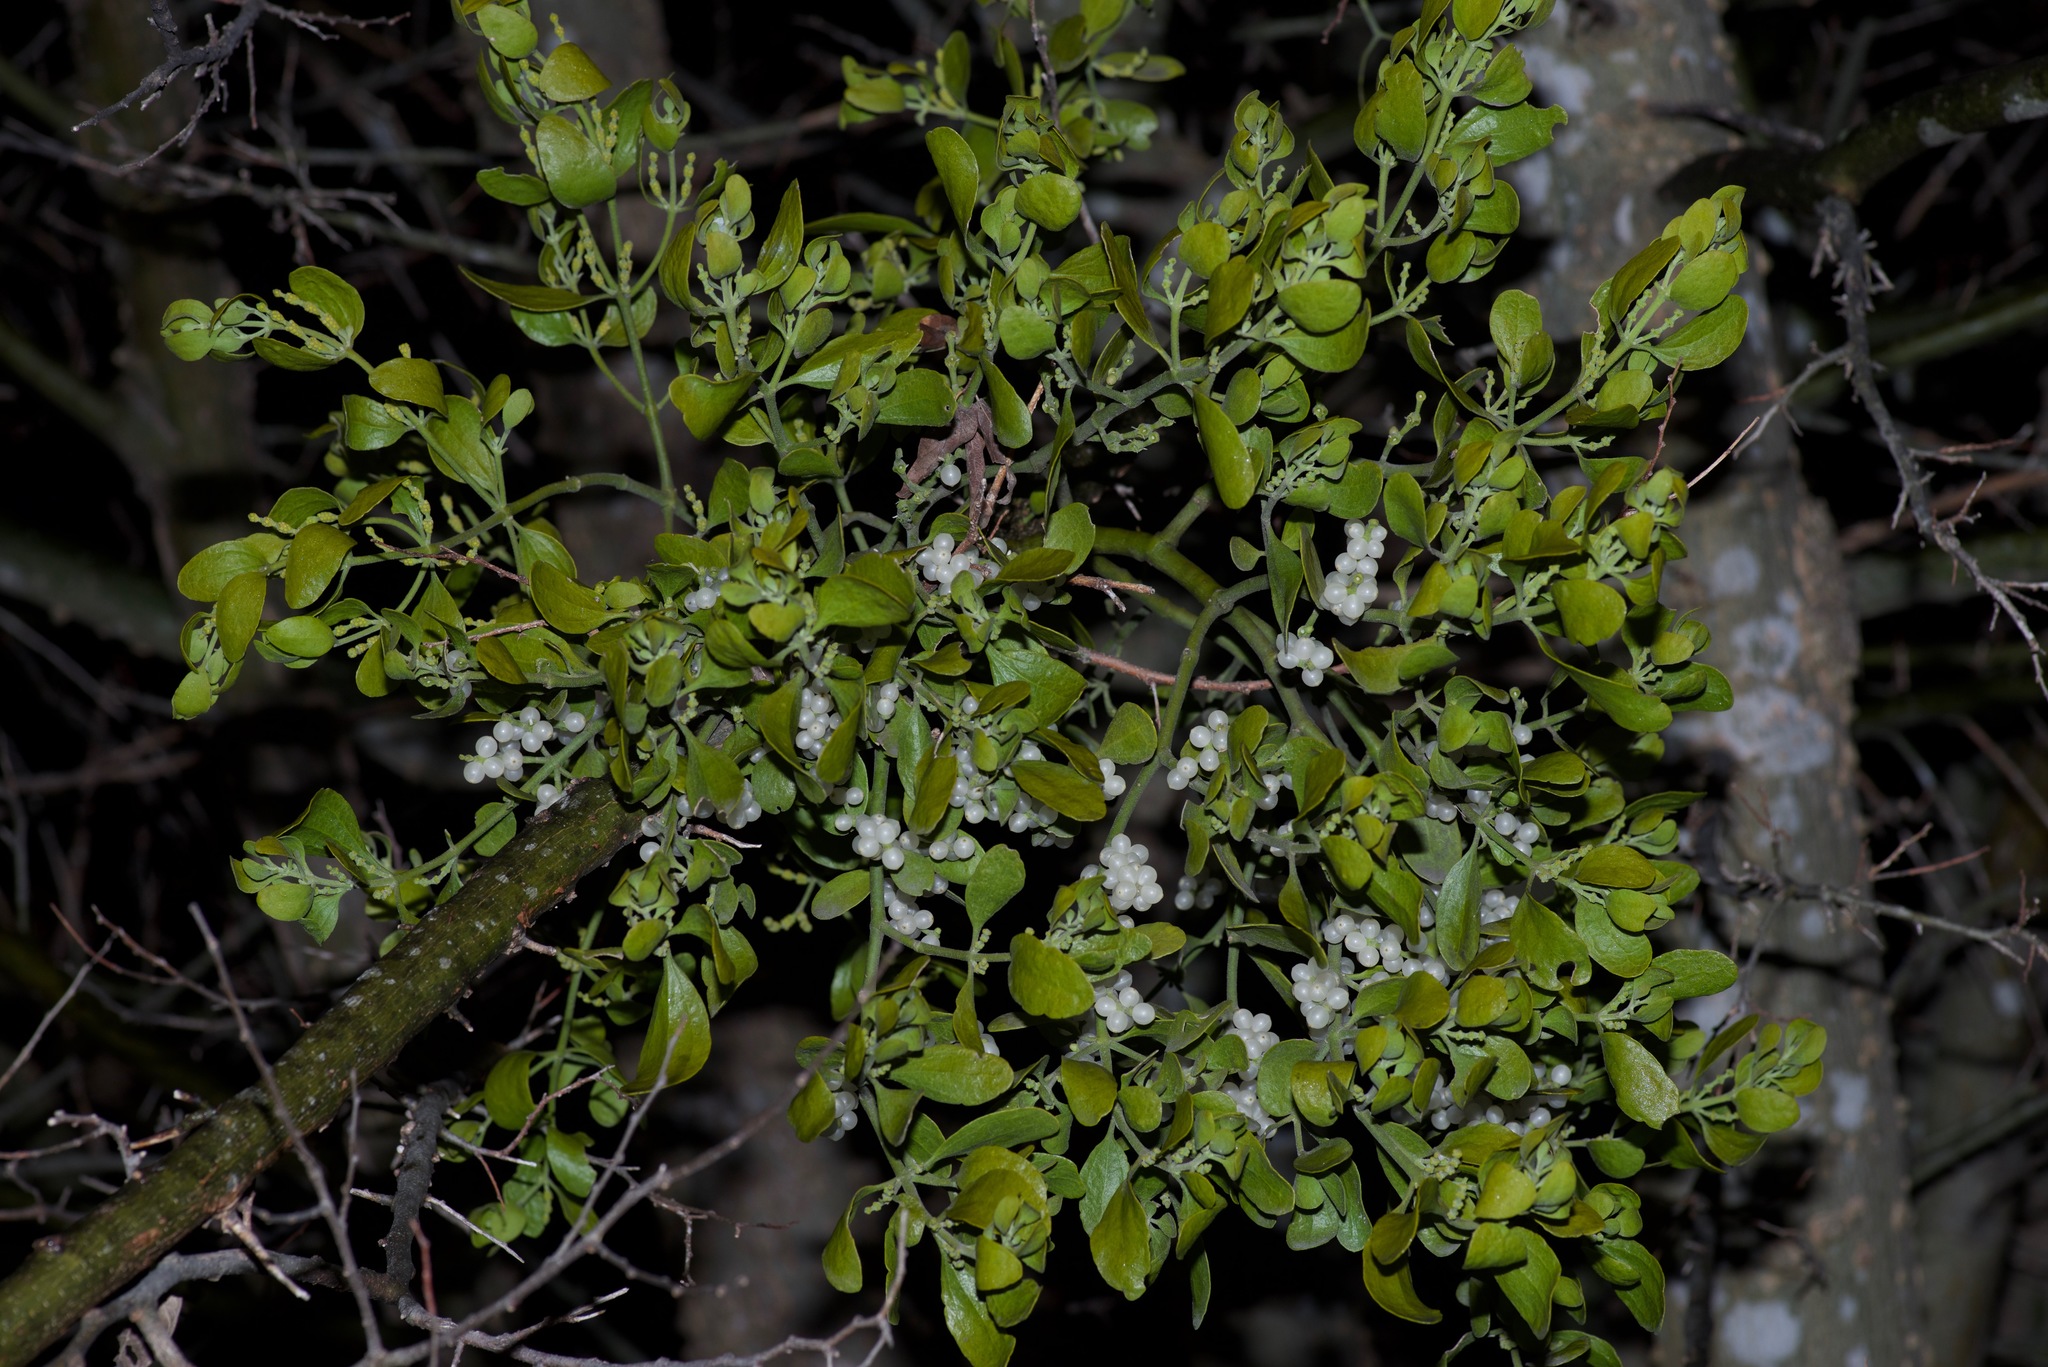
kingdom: Plantae
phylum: Tracheophyta
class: Magnoliopsida
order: Santalales
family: Viscaceae
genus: Phoradendron
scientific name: Phoradendron leucarpum
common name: Pacific mistletoe
